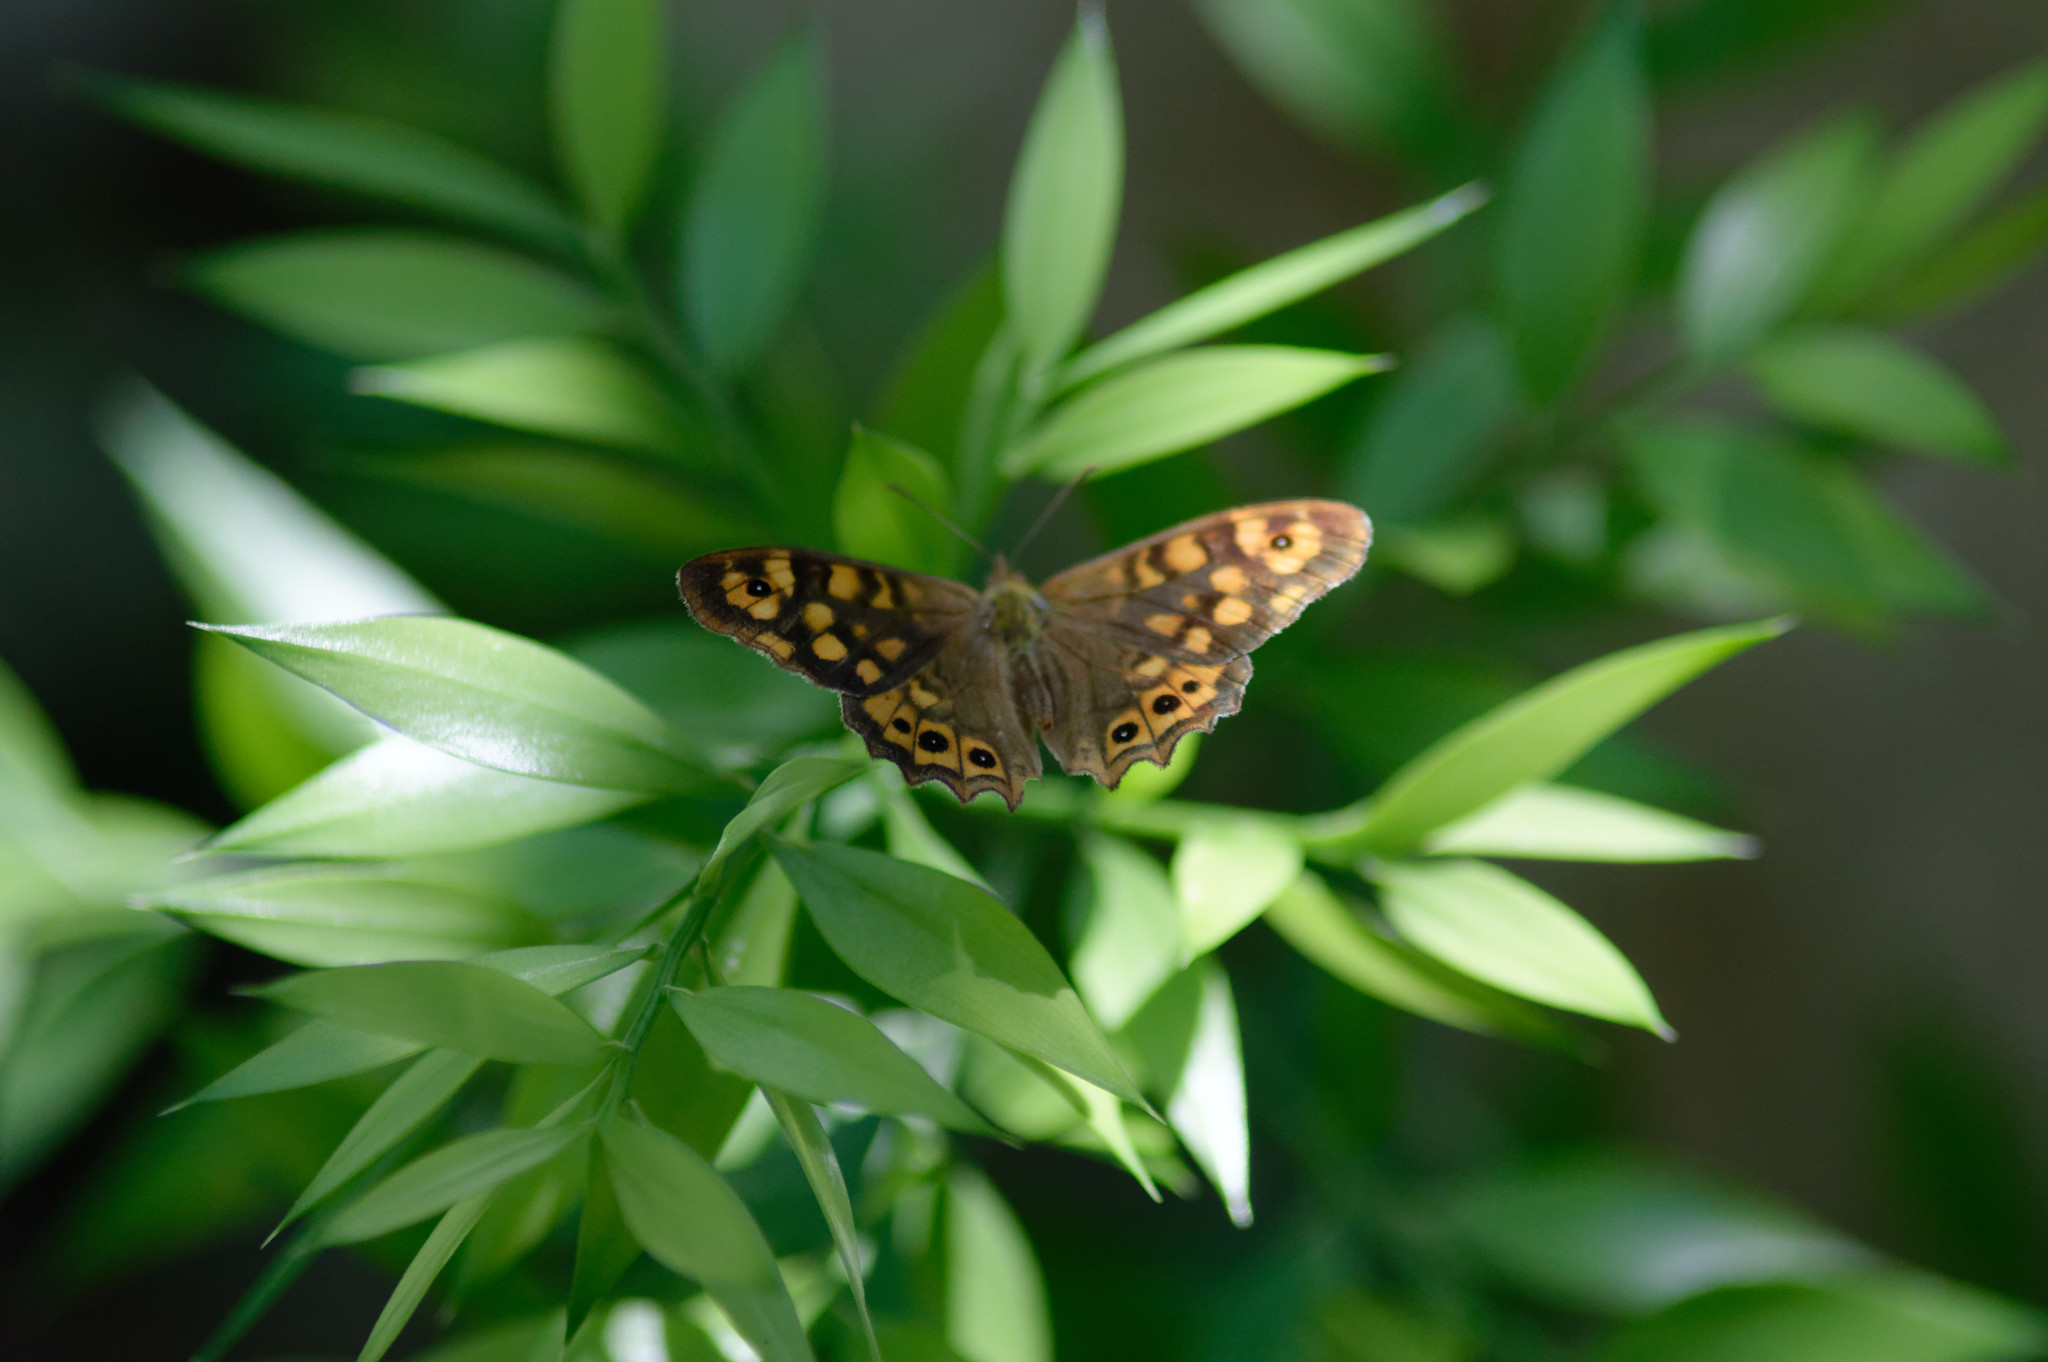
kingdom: Animalia
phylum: Arthropoda
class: Insecta
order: Lepidoptera
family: Nymphalidae
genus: Pararge
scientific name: Pararge aegeria
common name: Speckled wood
